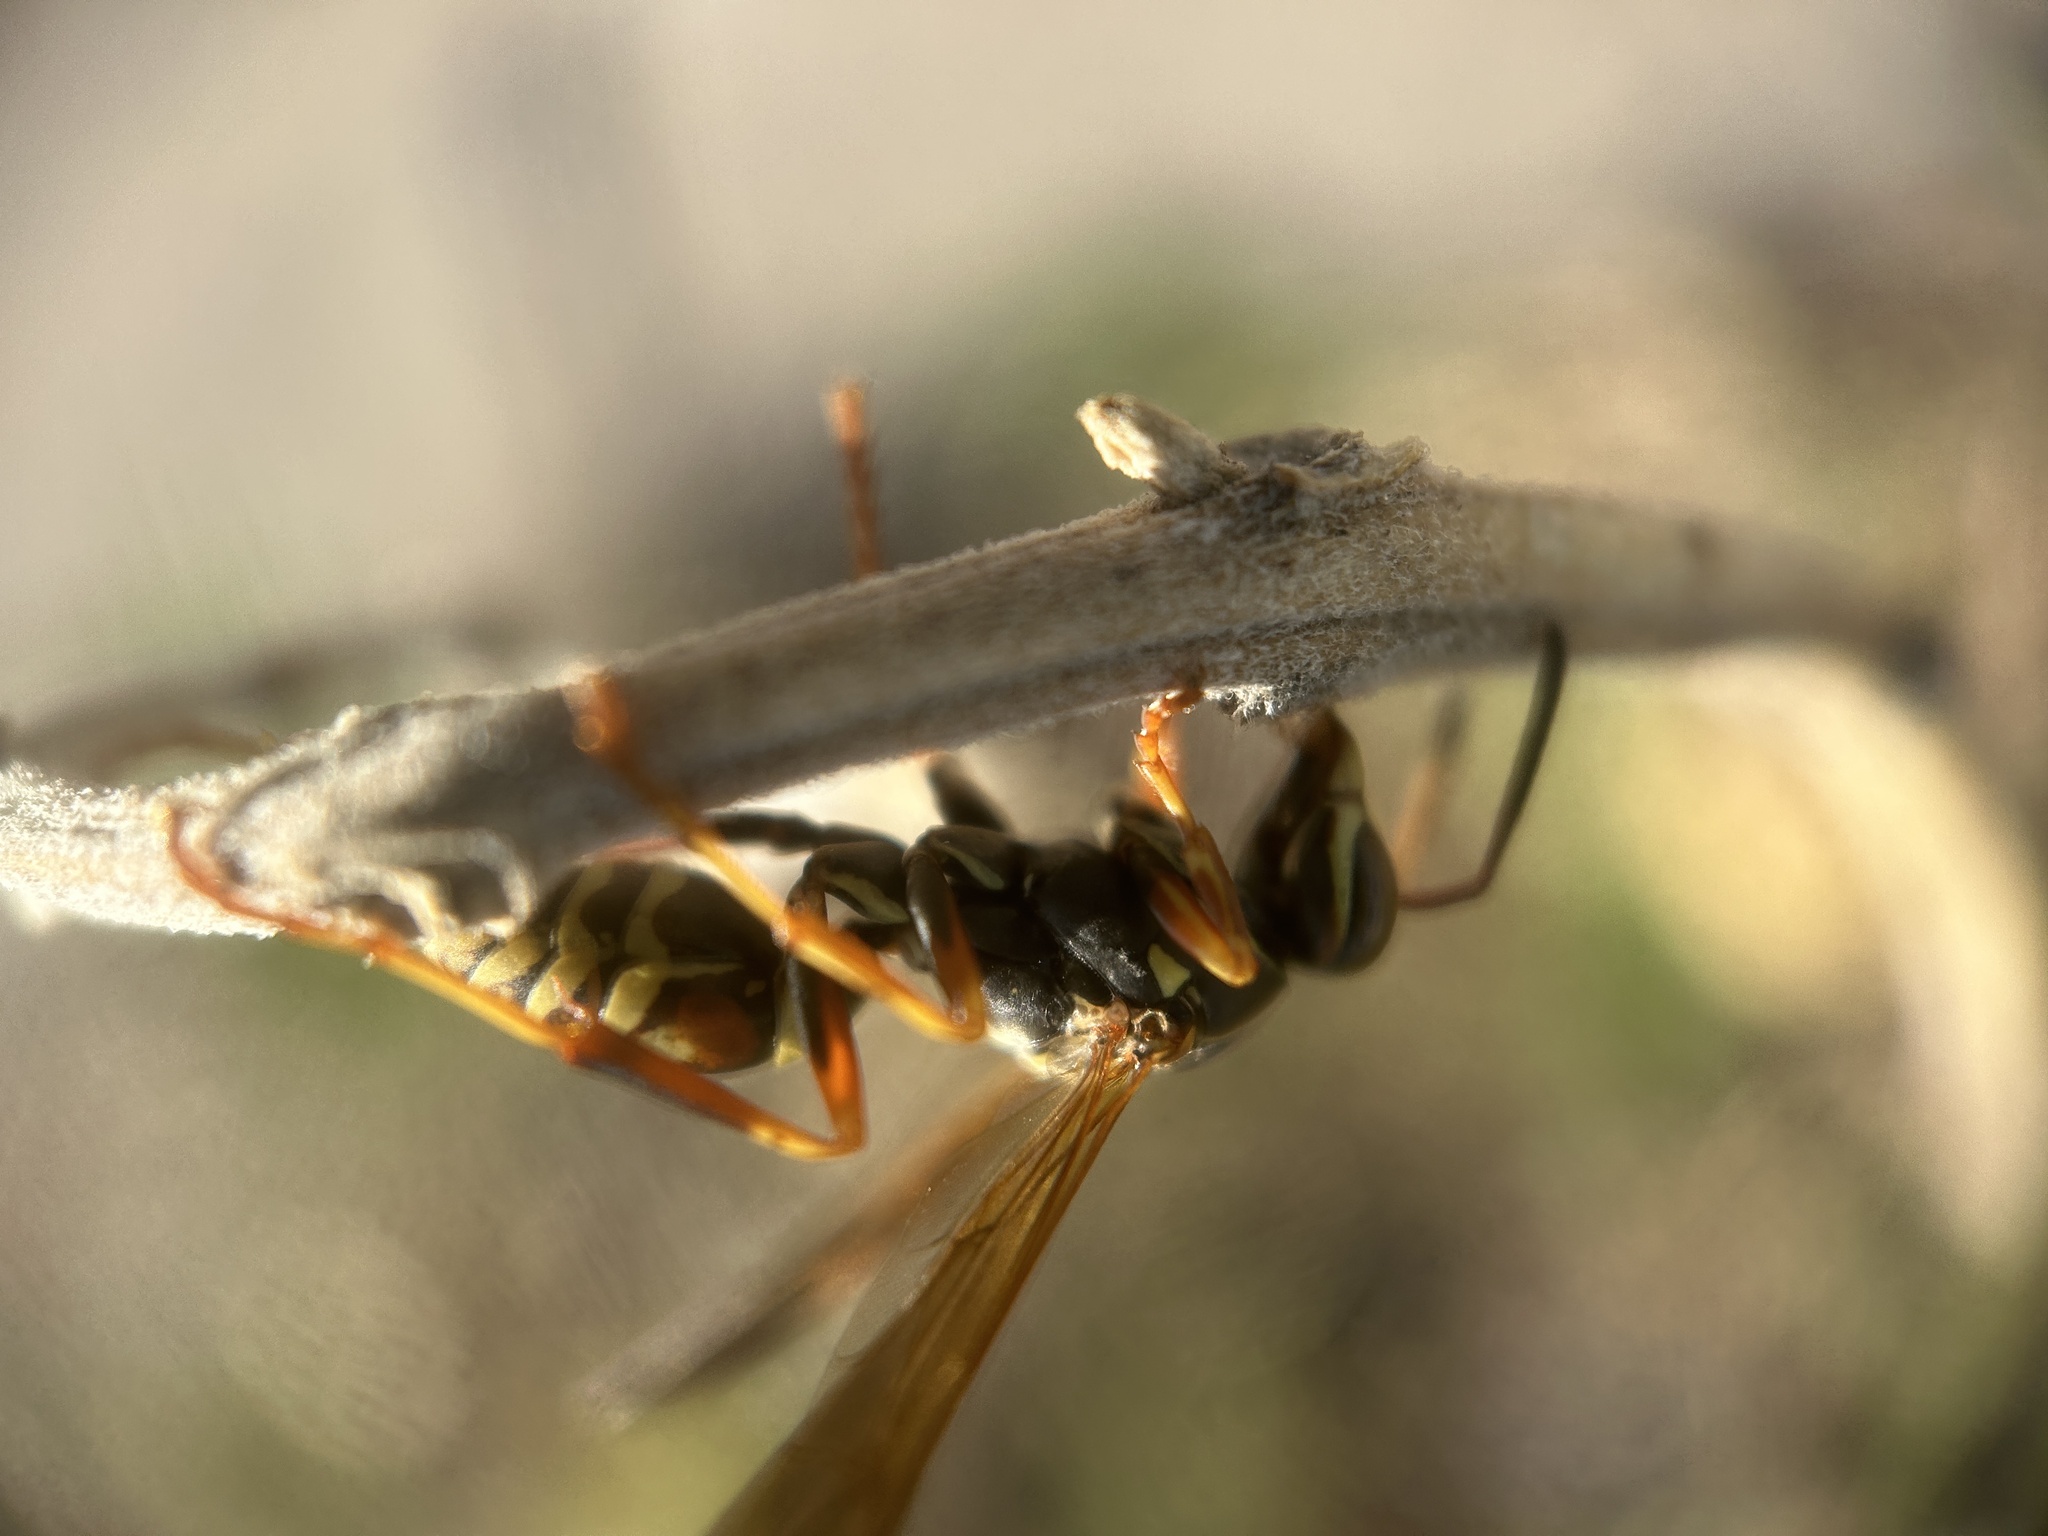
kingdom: Animalia
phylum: Arthropoda
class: Insecta
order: Hymenoptera
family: Eumenidae
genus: Polistes
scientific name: Polistes fuscatus
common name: Dark paper wasp
